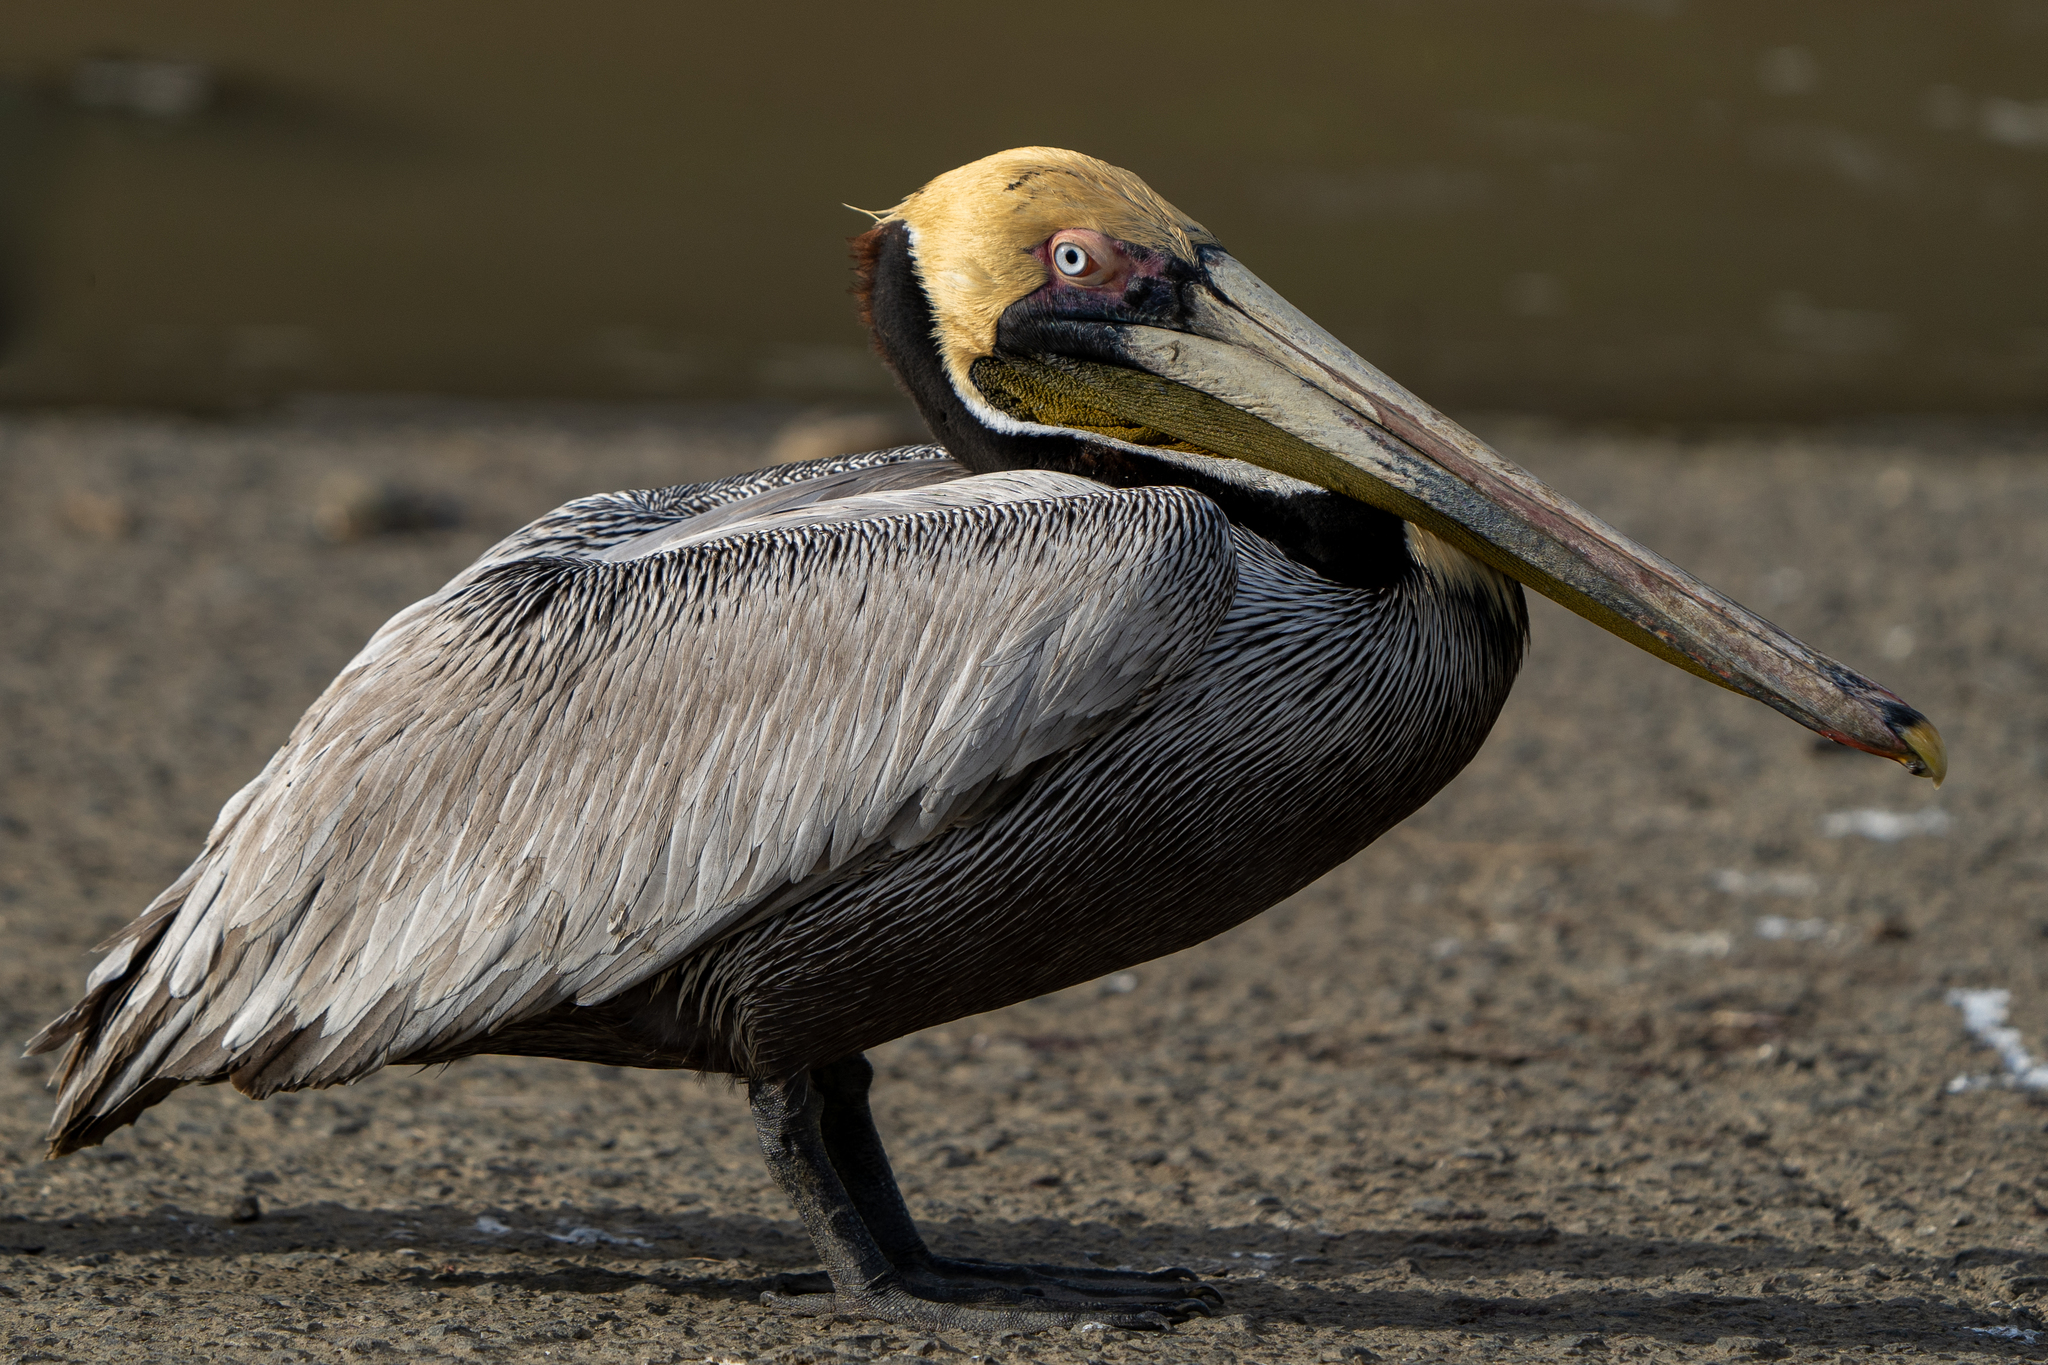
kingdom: Animalia
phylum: Chordata
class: Aves
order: Pelecaniformes
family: Pelecanidae
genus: Pelecanus
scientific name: Pelecanus occidentalis
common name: Brown pelican
